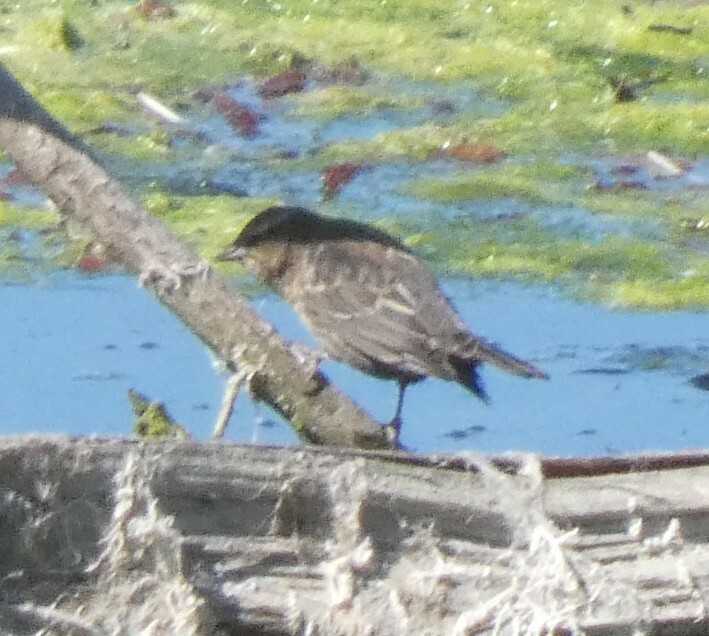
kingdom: Animalia
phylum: Chordata
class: Aves
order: Passeriformes
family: Icteridae
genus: Agelaius
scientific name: Agelaius phoeniceus
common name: Red-winged blackbird
